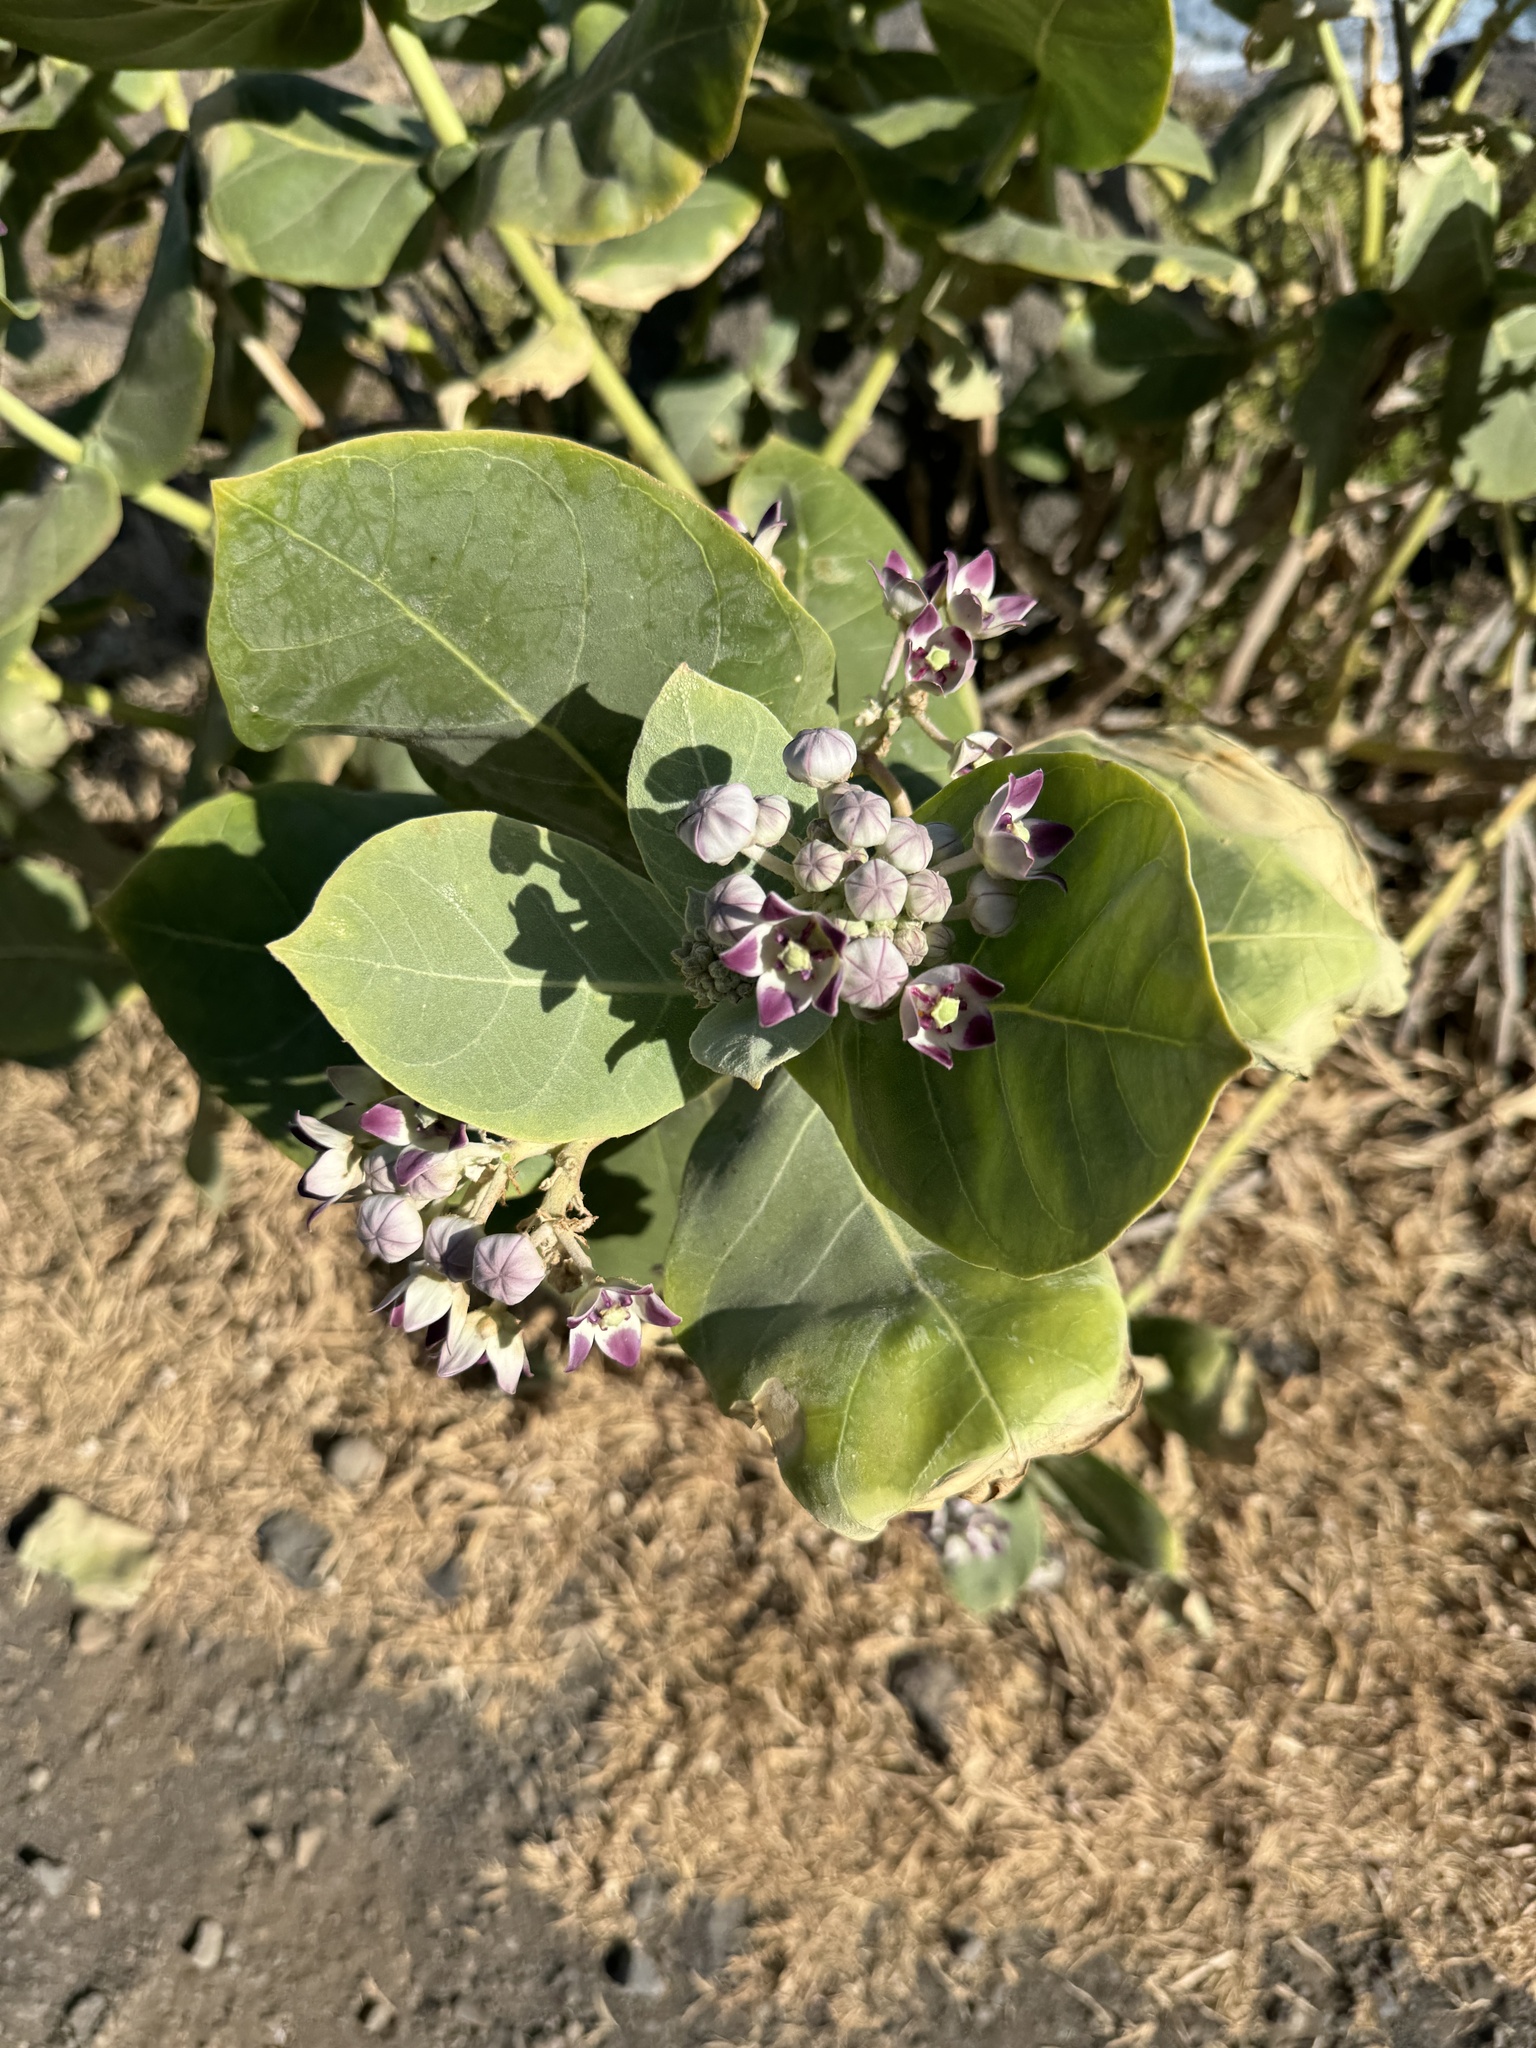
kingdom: Plantae
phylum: Tracheophyta
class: Magnoliopsida
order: Gentianales
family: Apocynaceae
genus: Calotropis
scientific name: Calotropis procera
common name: Roostertree
